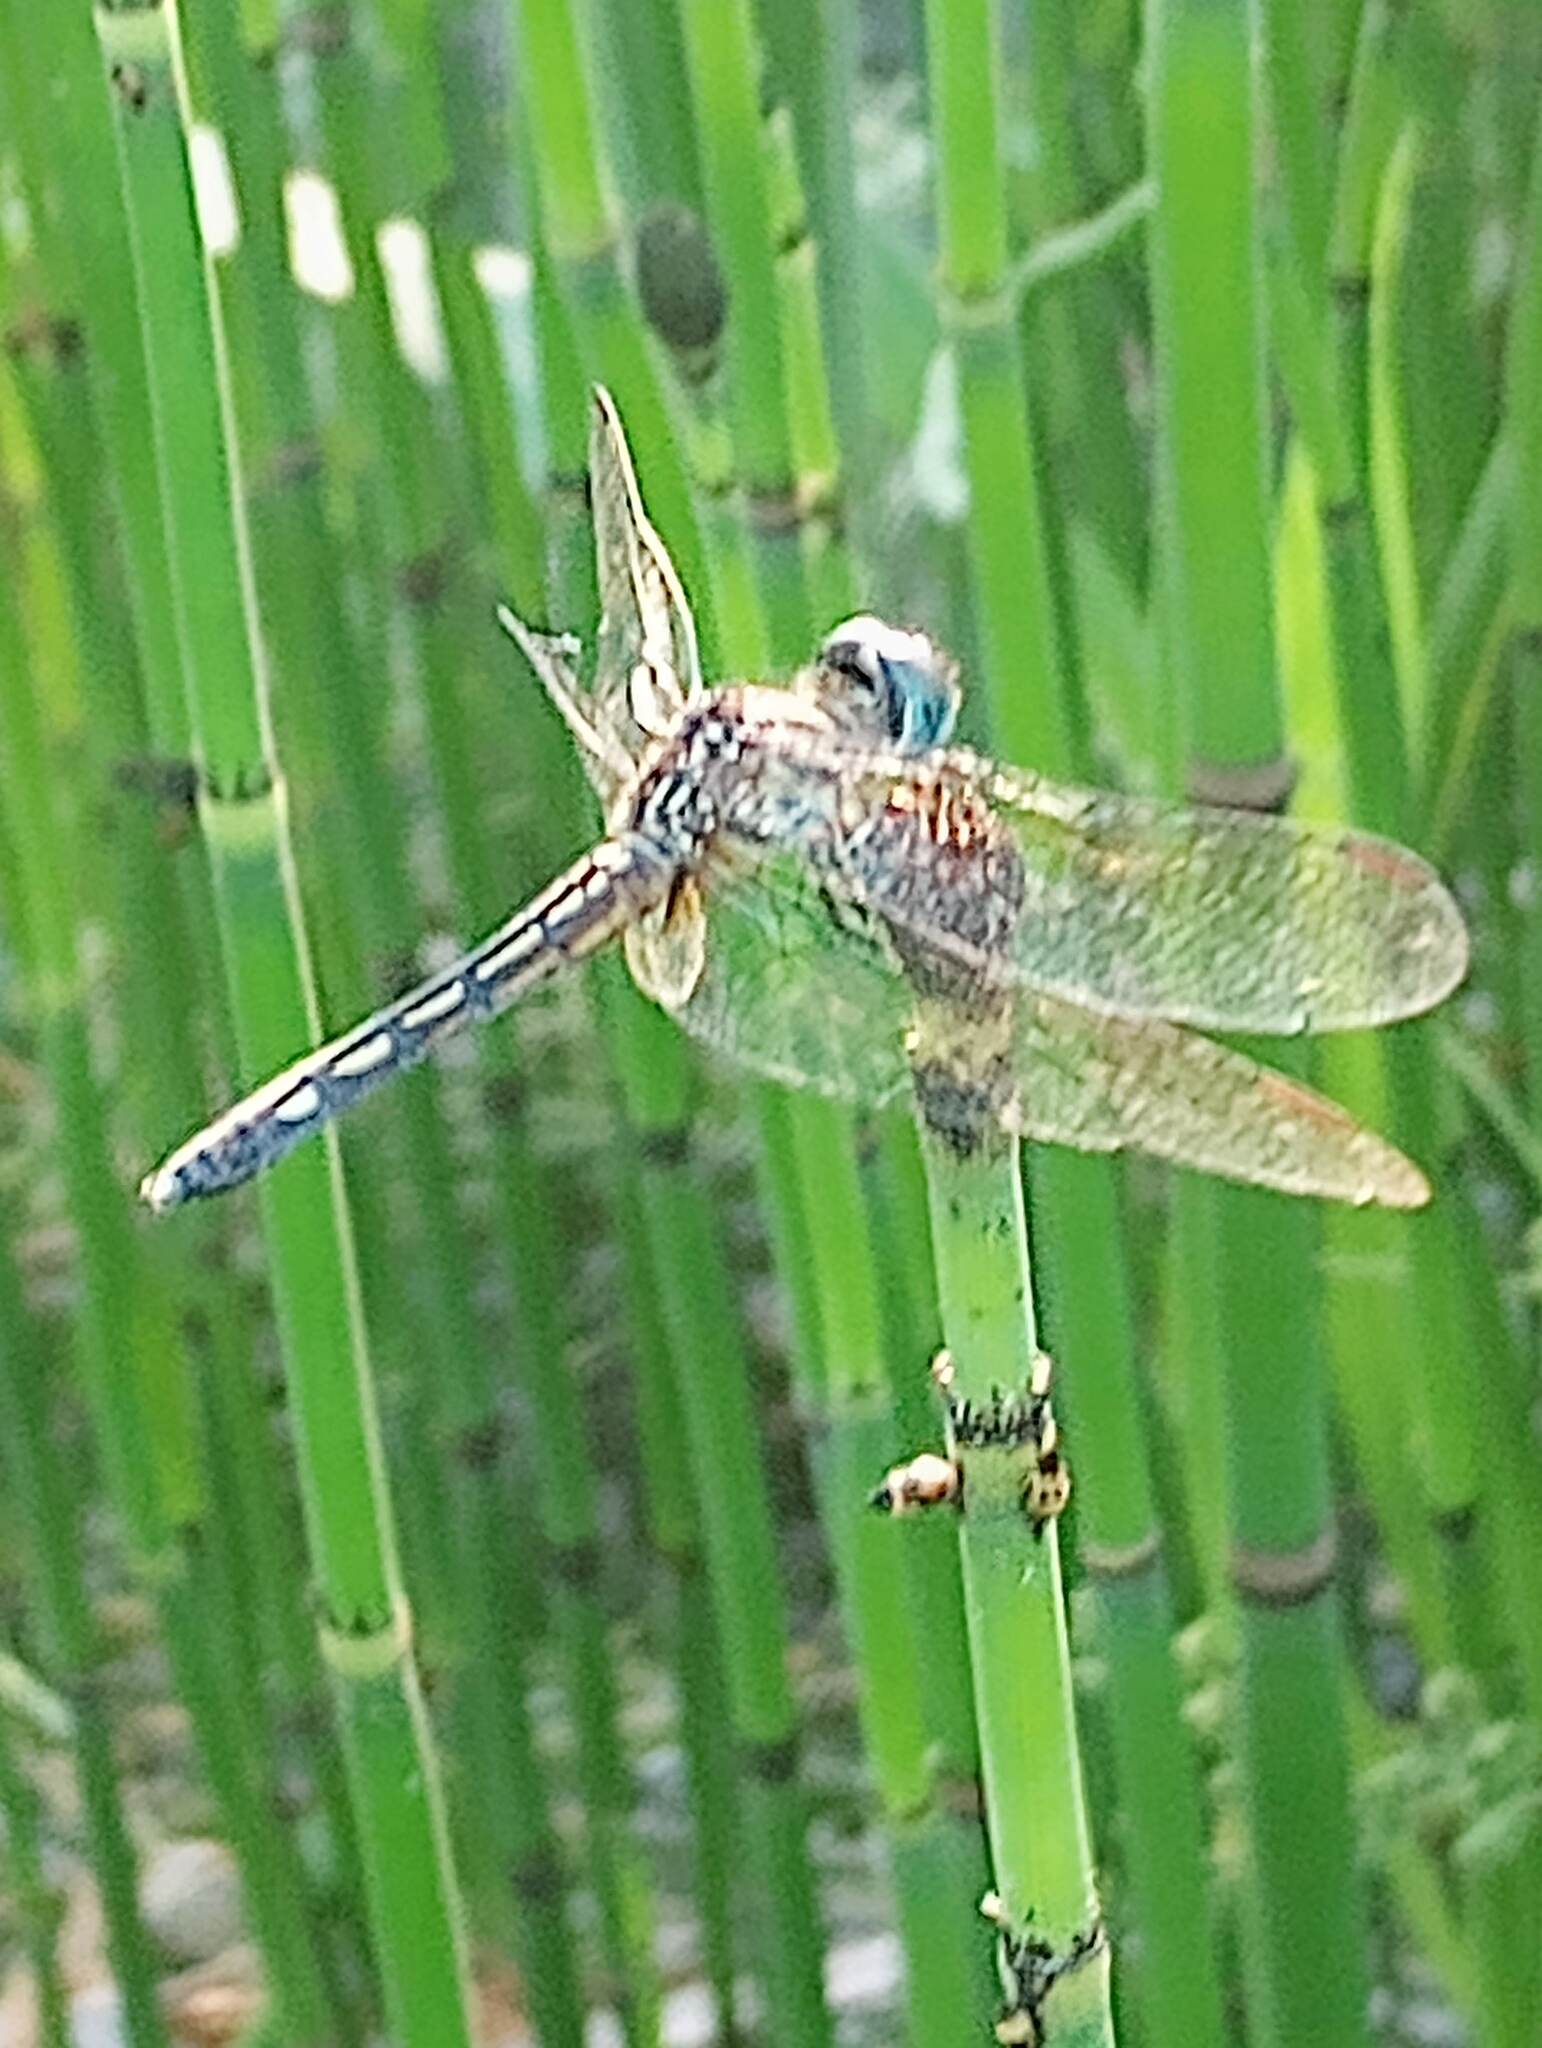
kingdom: Animalia
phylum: Arthropoda
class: Insecta
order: Odonata
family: Libellulidae
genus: Pachydiplax
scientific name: Pachydiplax longipennis
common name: Blue dasher
